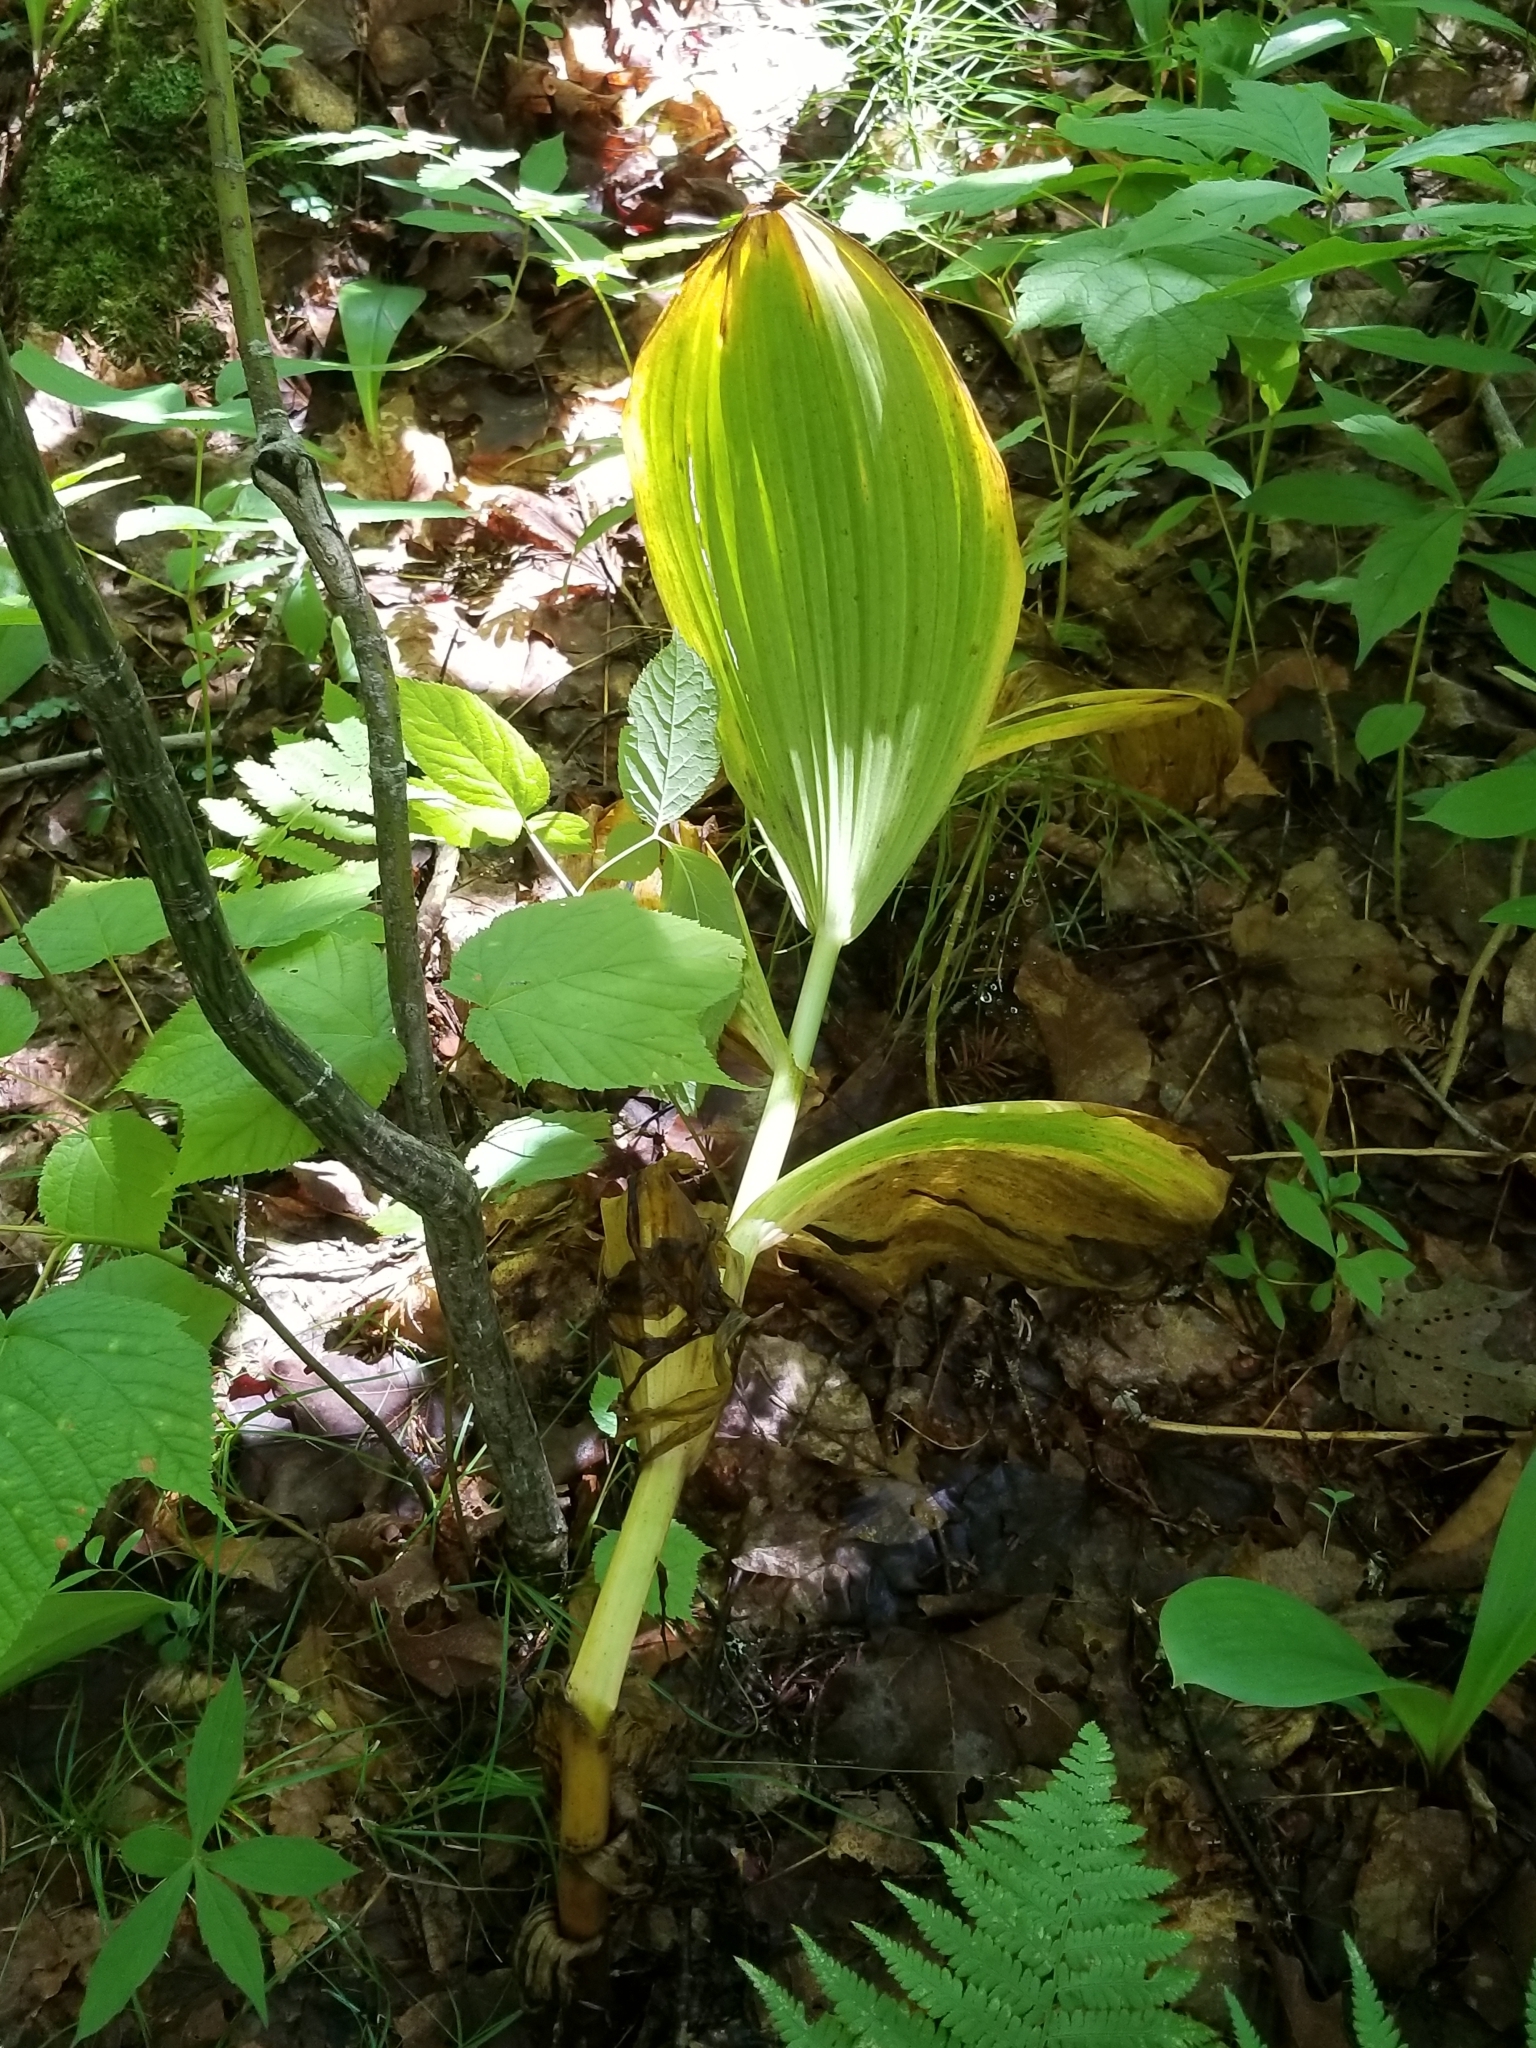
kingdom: Plantae
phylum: Tracheophyta
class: Liliopsida
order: Liliales
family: Melanthiaceae
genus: Veratrum
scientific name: Veratrum viride
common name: American false hellebore
